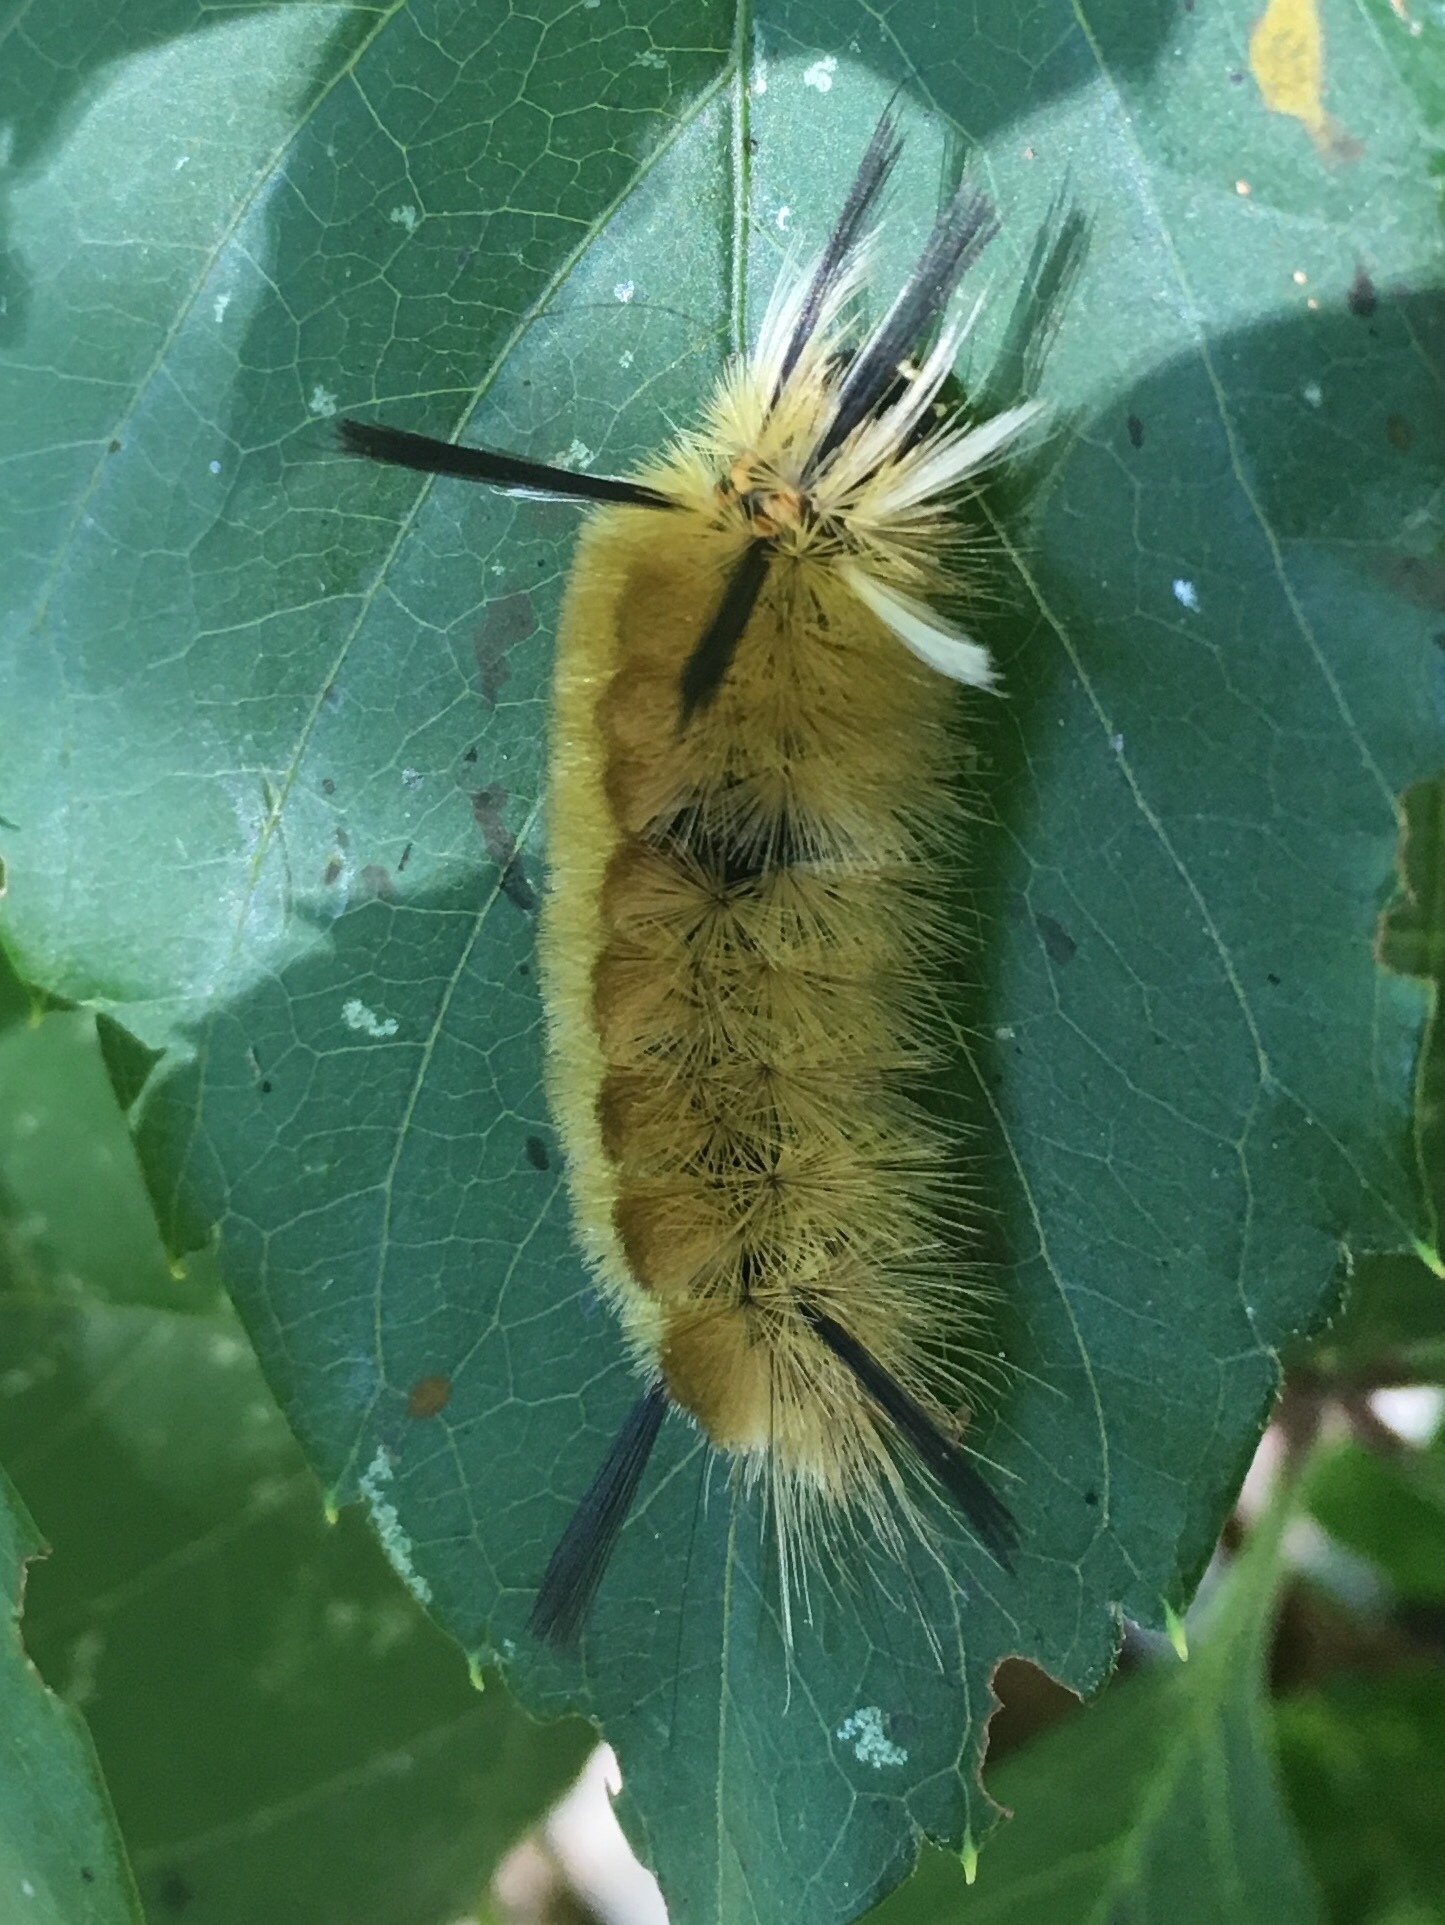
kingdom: Animalia
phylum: Arthropoda
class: Insecta
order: Lepidoptera
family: Erebidae
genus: Halysidota
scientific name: Halysidota tessellaris
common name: Banded tussock moth
